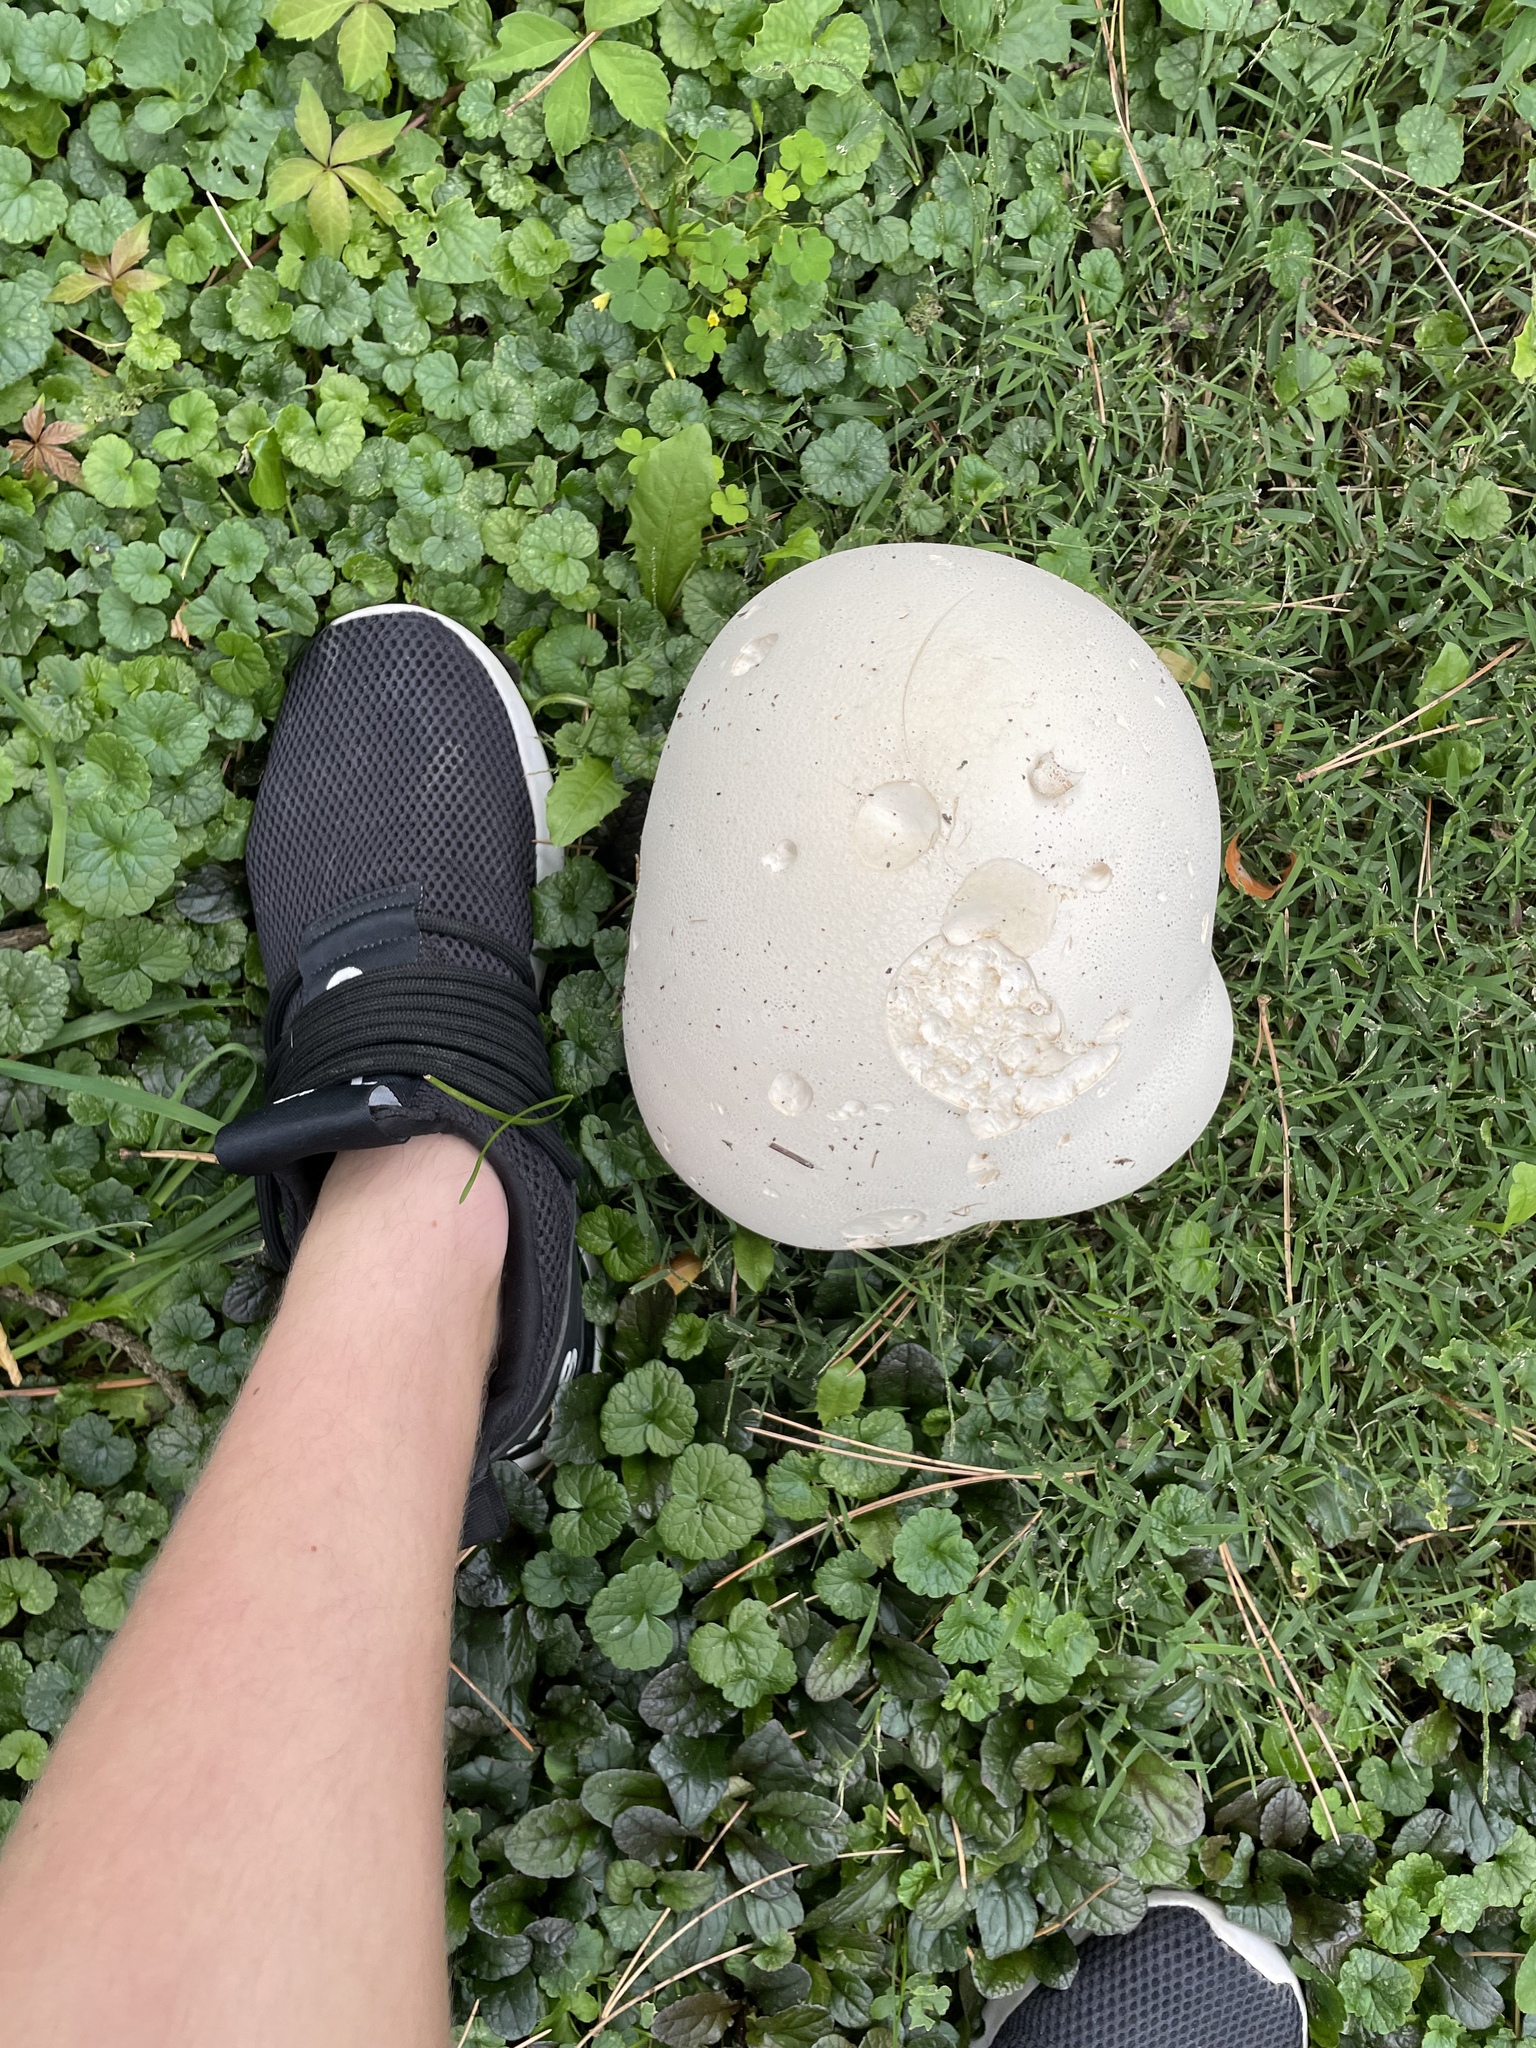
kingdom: Fungi
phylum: Basidiomycota
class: Agaricomycetes
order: Agaricales
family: Lycoperdaceae
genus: Calvatia
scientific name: Calvatia gigantea
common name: Giant puffball
